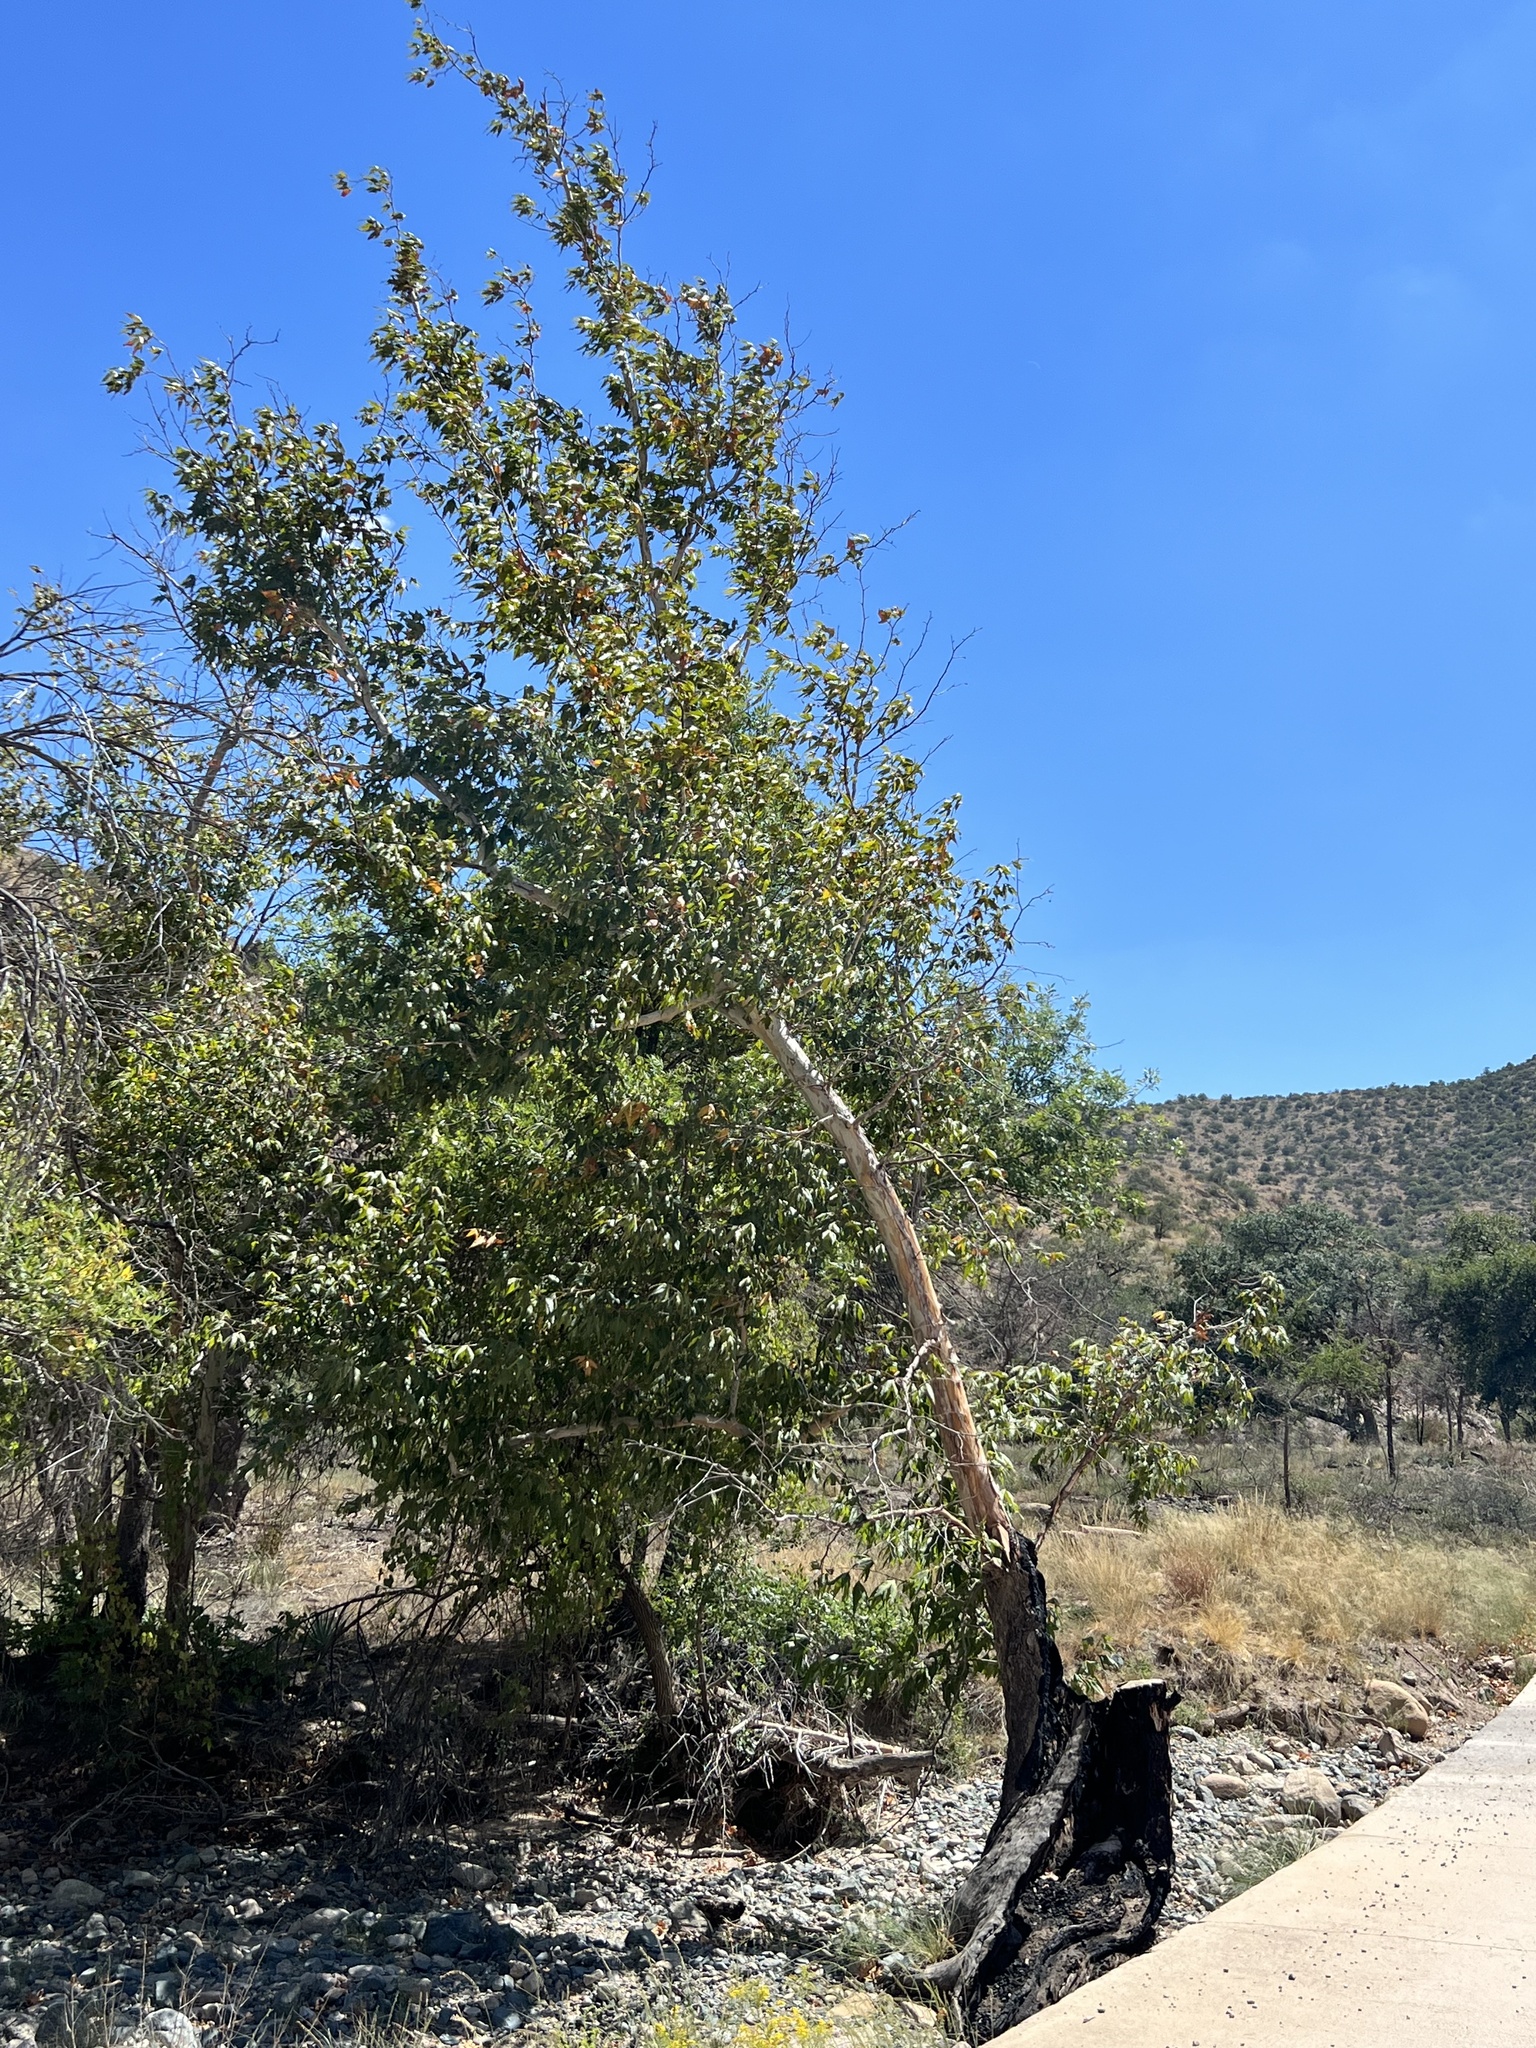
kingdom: Plantae
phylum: Tracheophyta
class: Magnoliopsida
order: Proteales
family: Platanaceae
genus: Platanus
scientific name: Platanus wrightii
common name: Arizona sycamore
